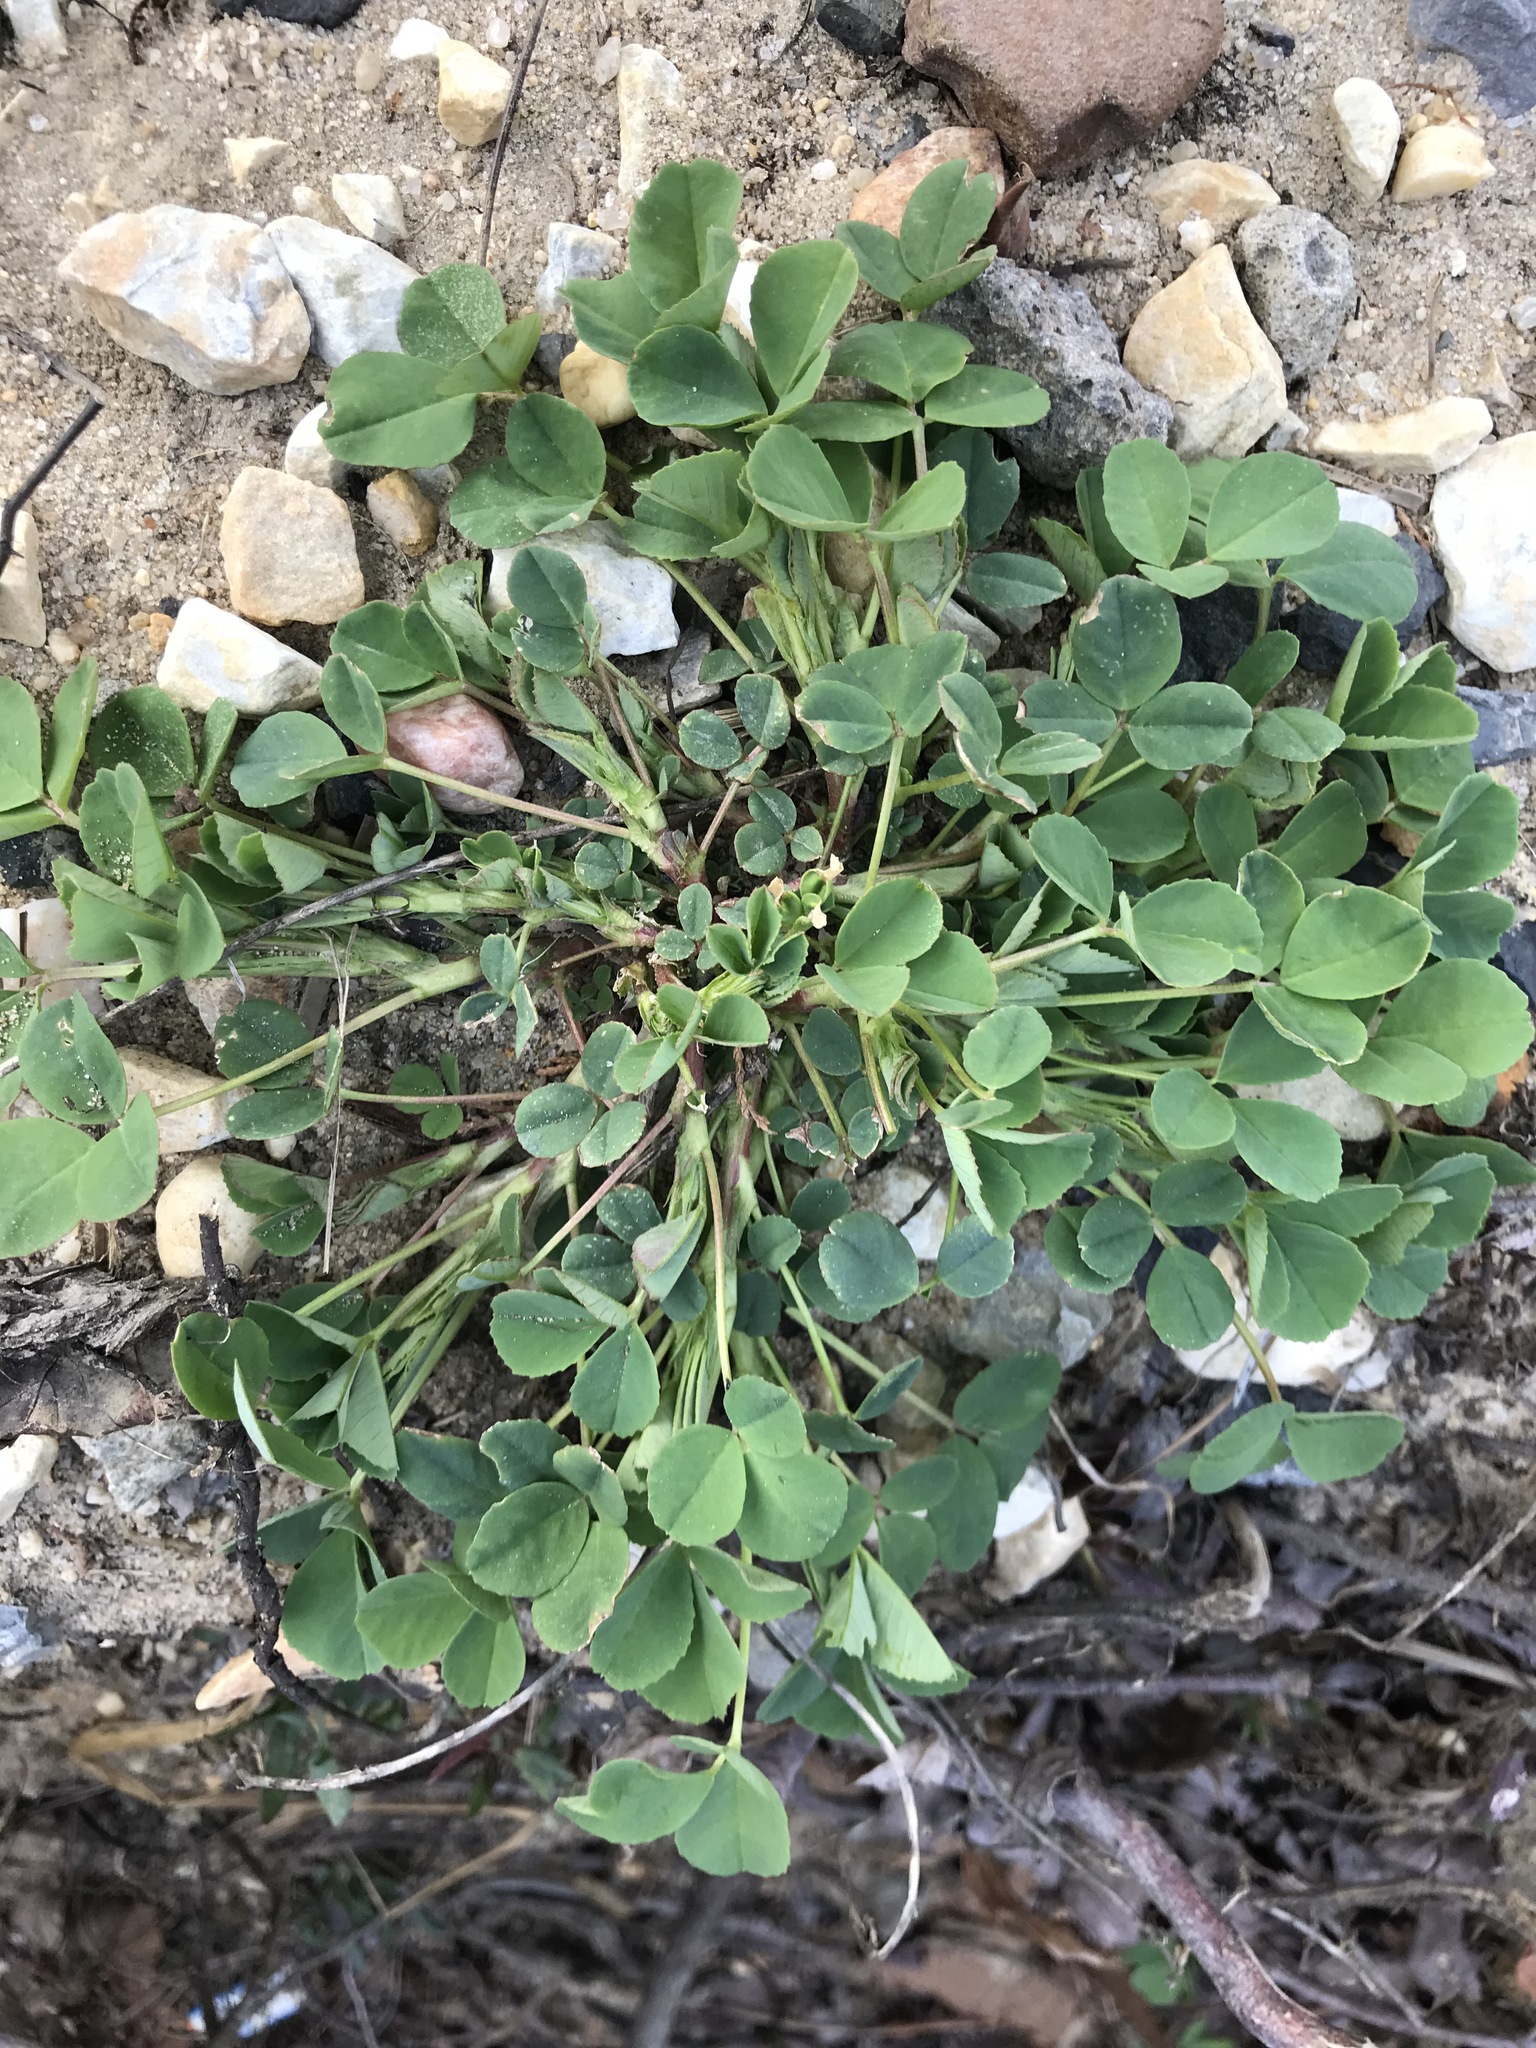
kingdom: Plantae
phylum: Tracheophyta
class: Magnoliopsida
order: Fabales
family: Fabaceae
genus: Medicago
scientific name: Medicago lupulina
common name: Black medick
